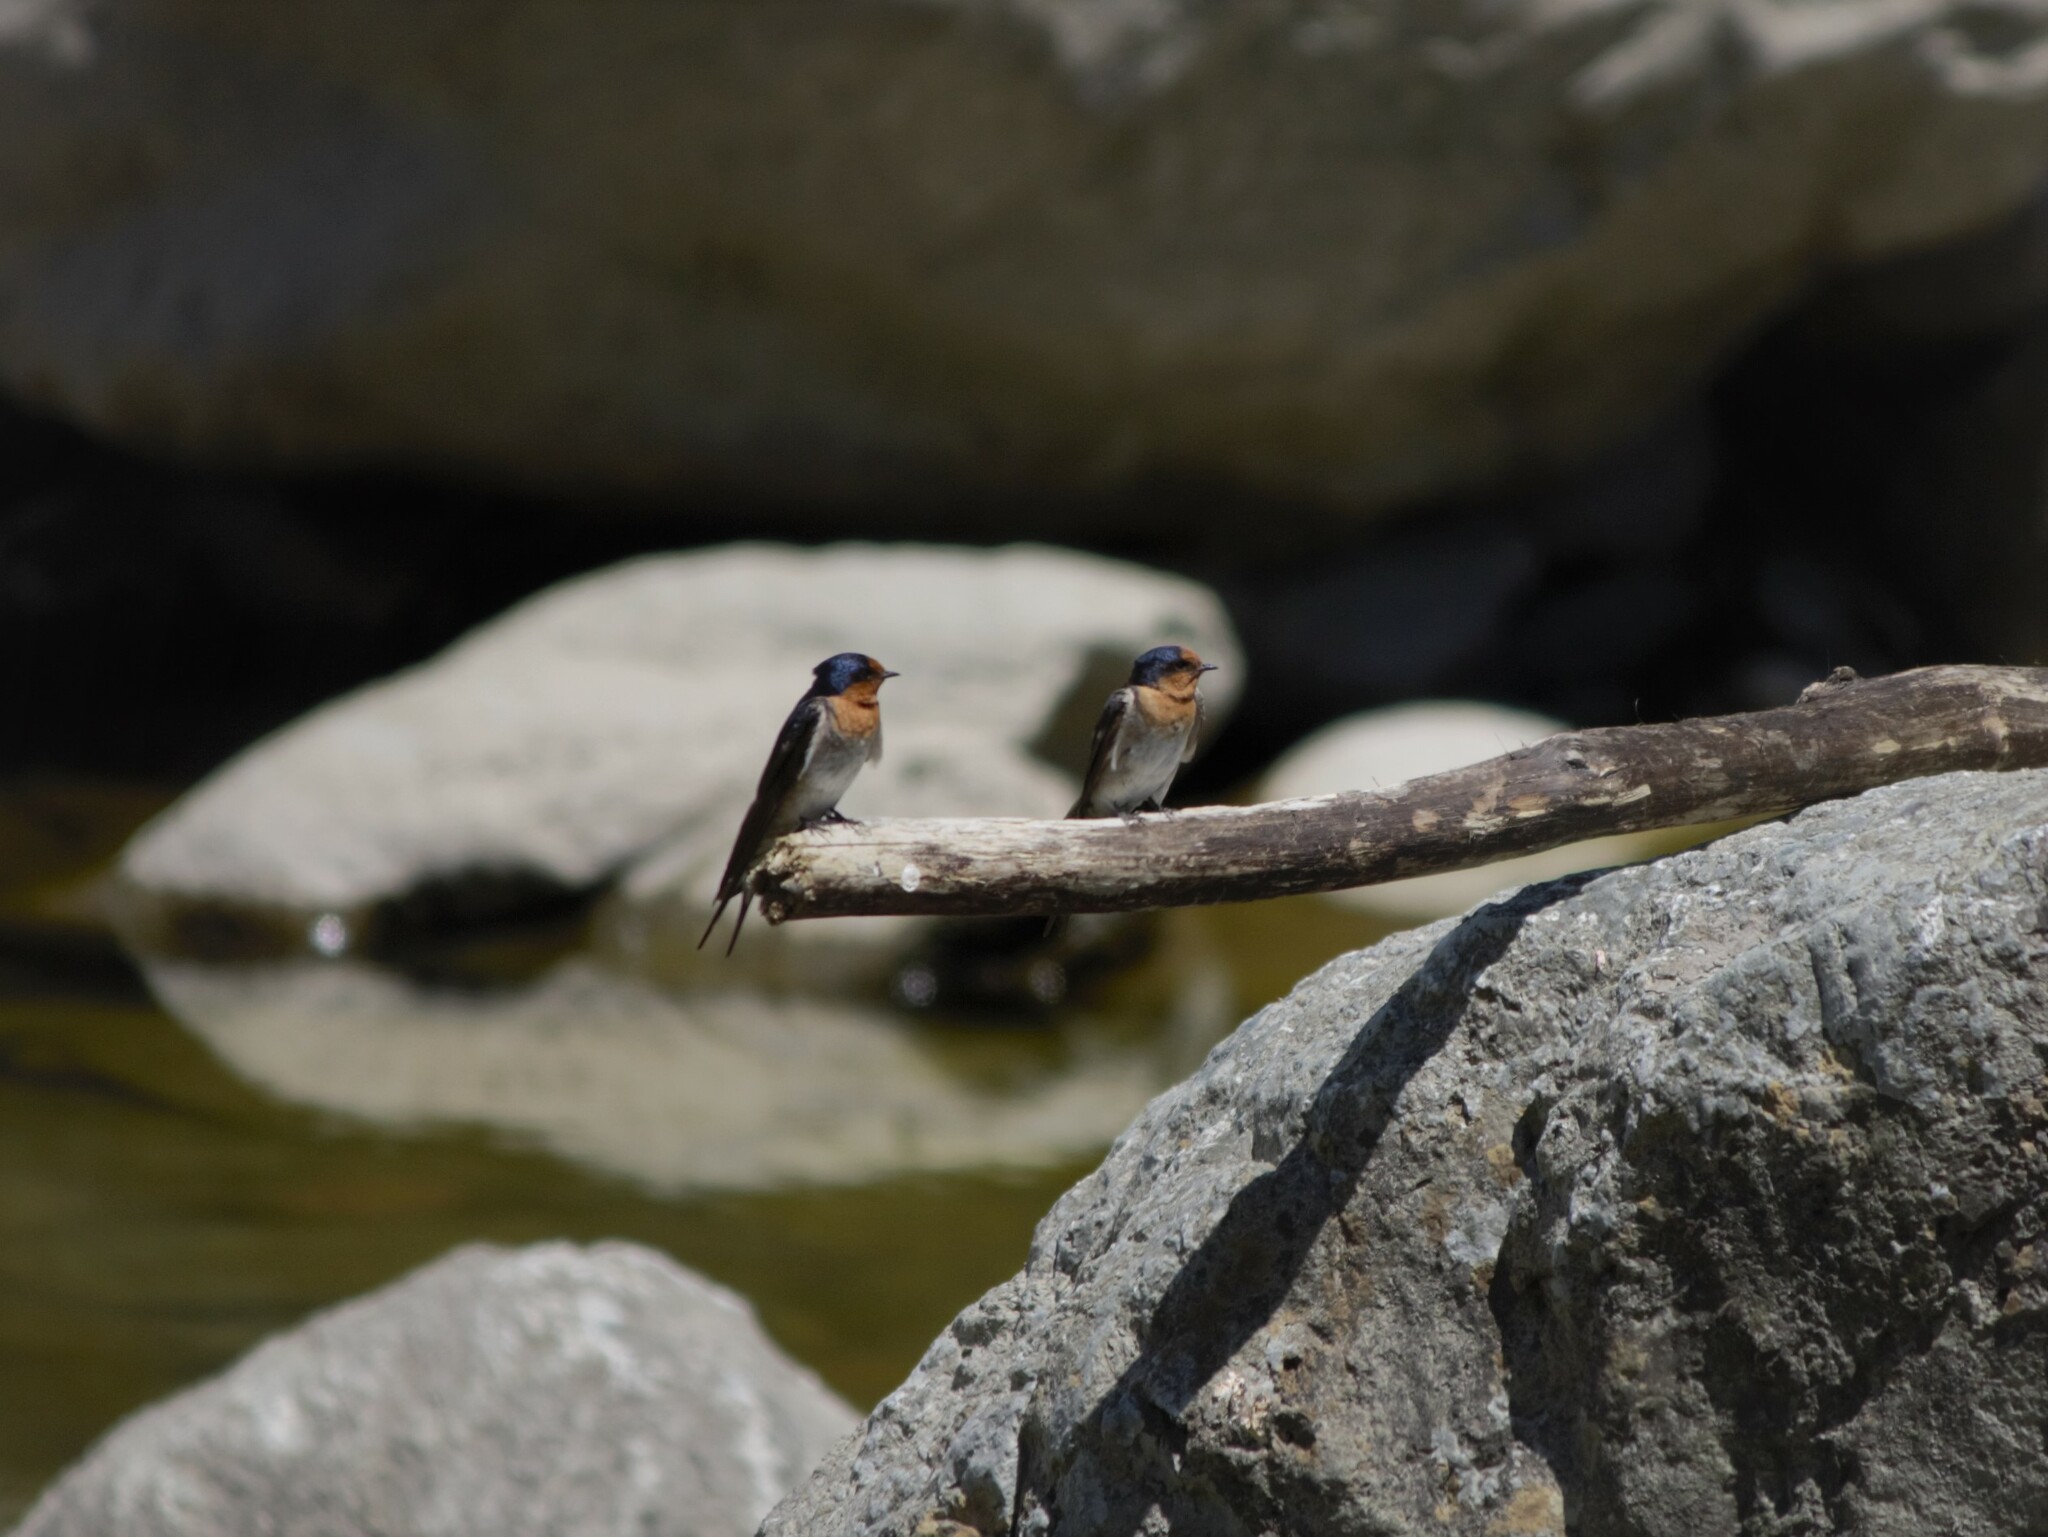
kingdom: Animalia
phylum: Chordata
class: Aves
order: Passeriformes
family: Hirundinidae
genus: Hirundo
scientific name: Hirundo neoxena
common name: Welcome swallow
